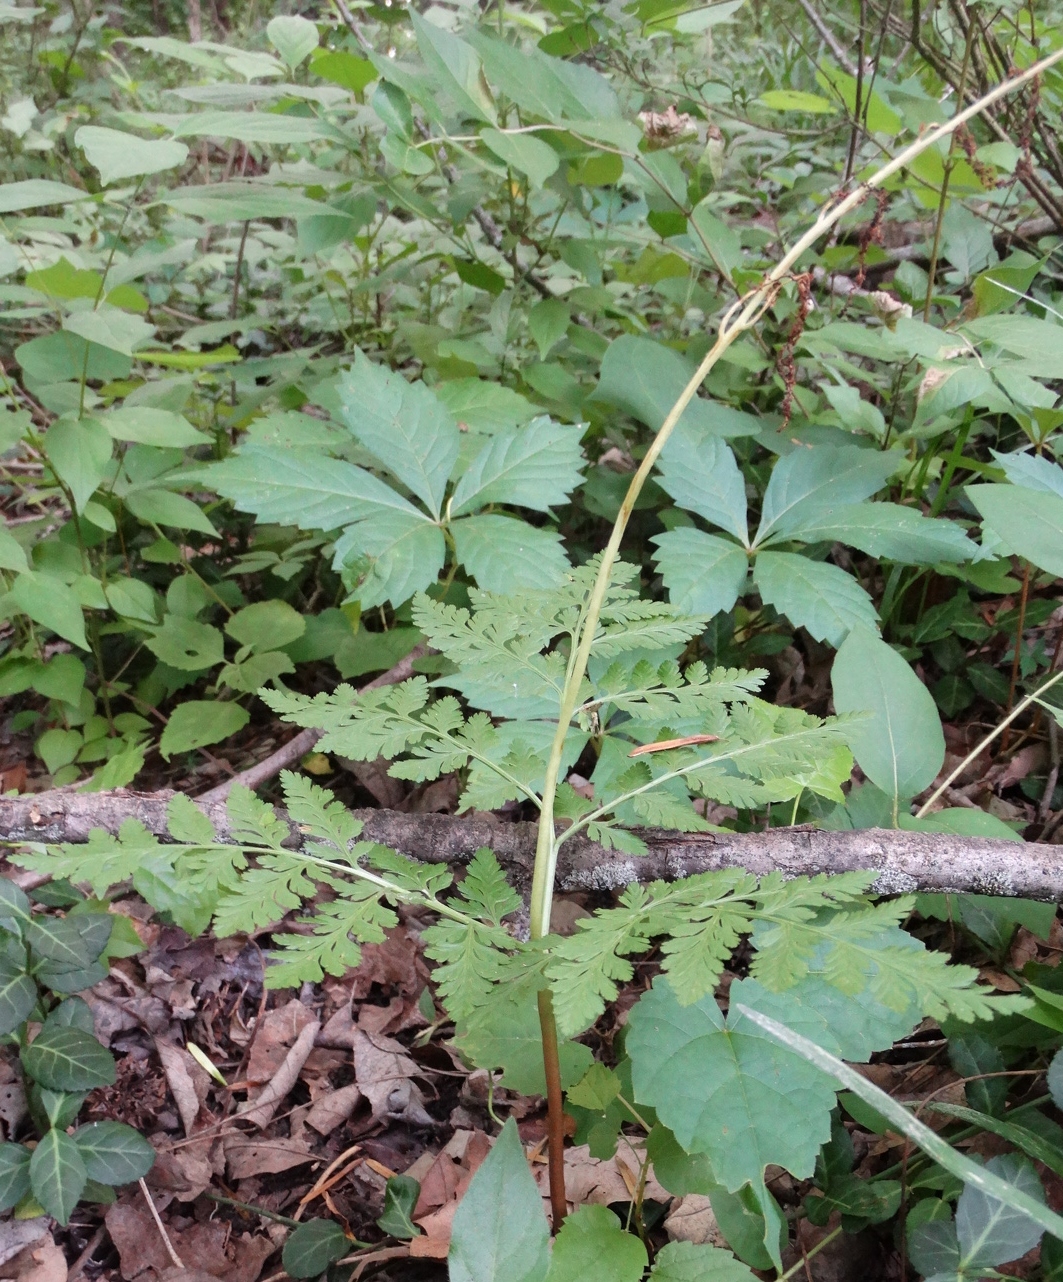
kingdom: Plantae
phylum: Tracheophyta
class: Polypodiopsida
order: Ophioglossales
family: Ophioglossaceae
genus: Botrypus
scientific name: Botrypus virginianus
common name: Common grapefern
